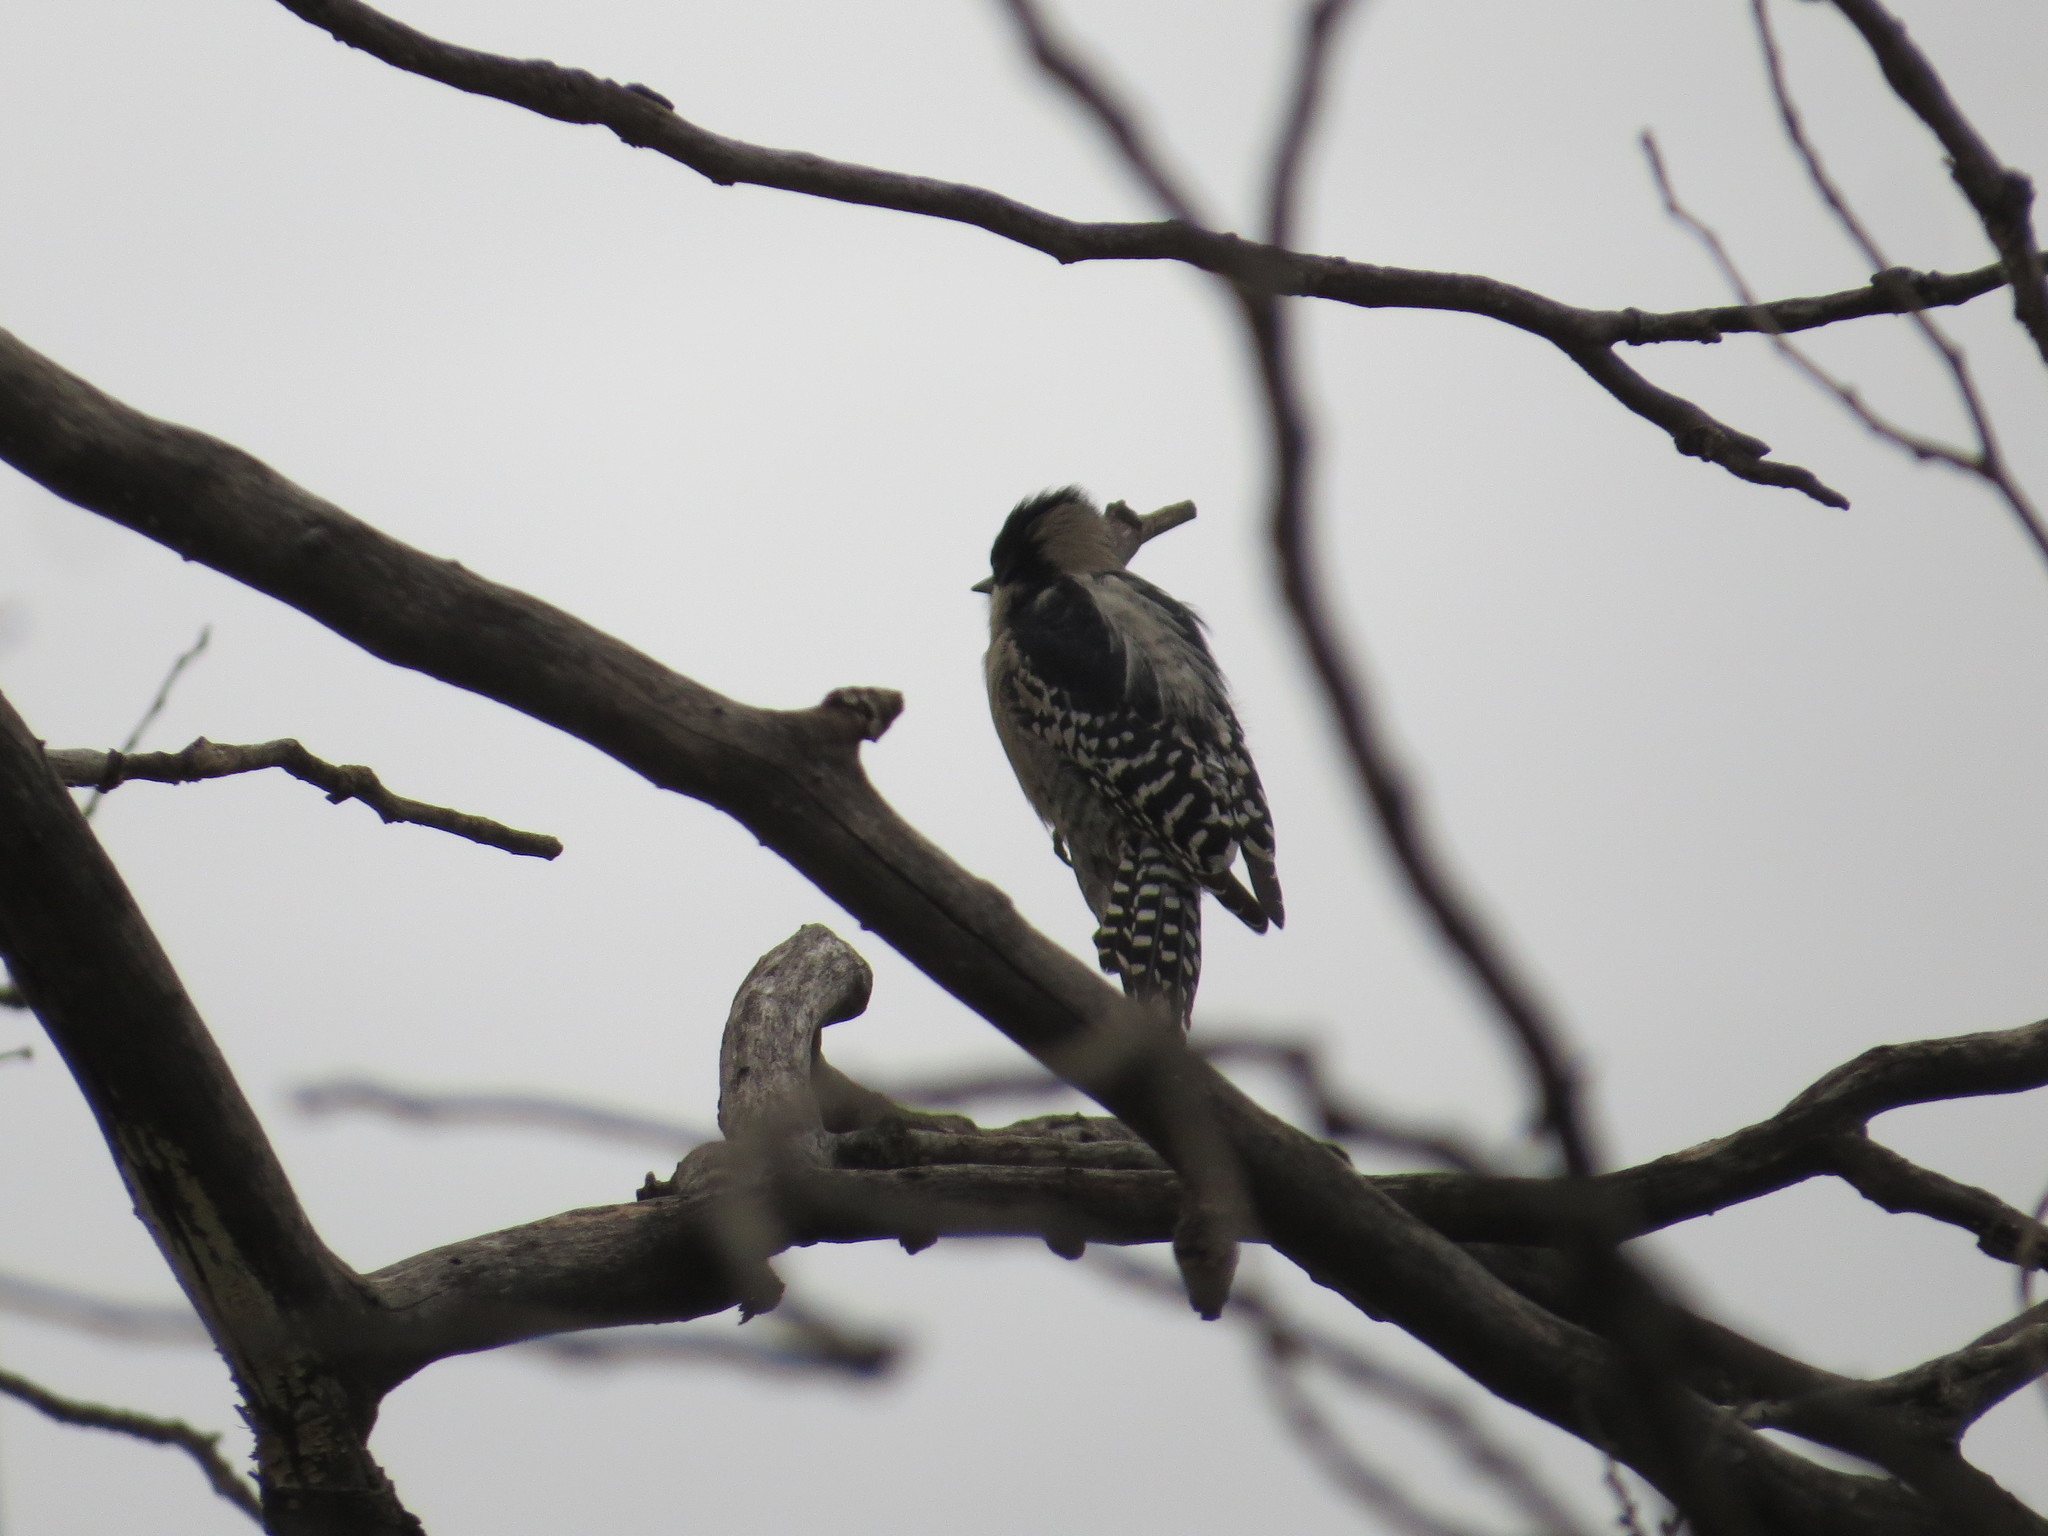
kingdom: Animalia
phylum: Chordata
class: Aves
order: Piciformes
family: Picidae
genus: Melanerpes
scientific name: Melanerpes cactorum
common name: White-fronted woodpecker
